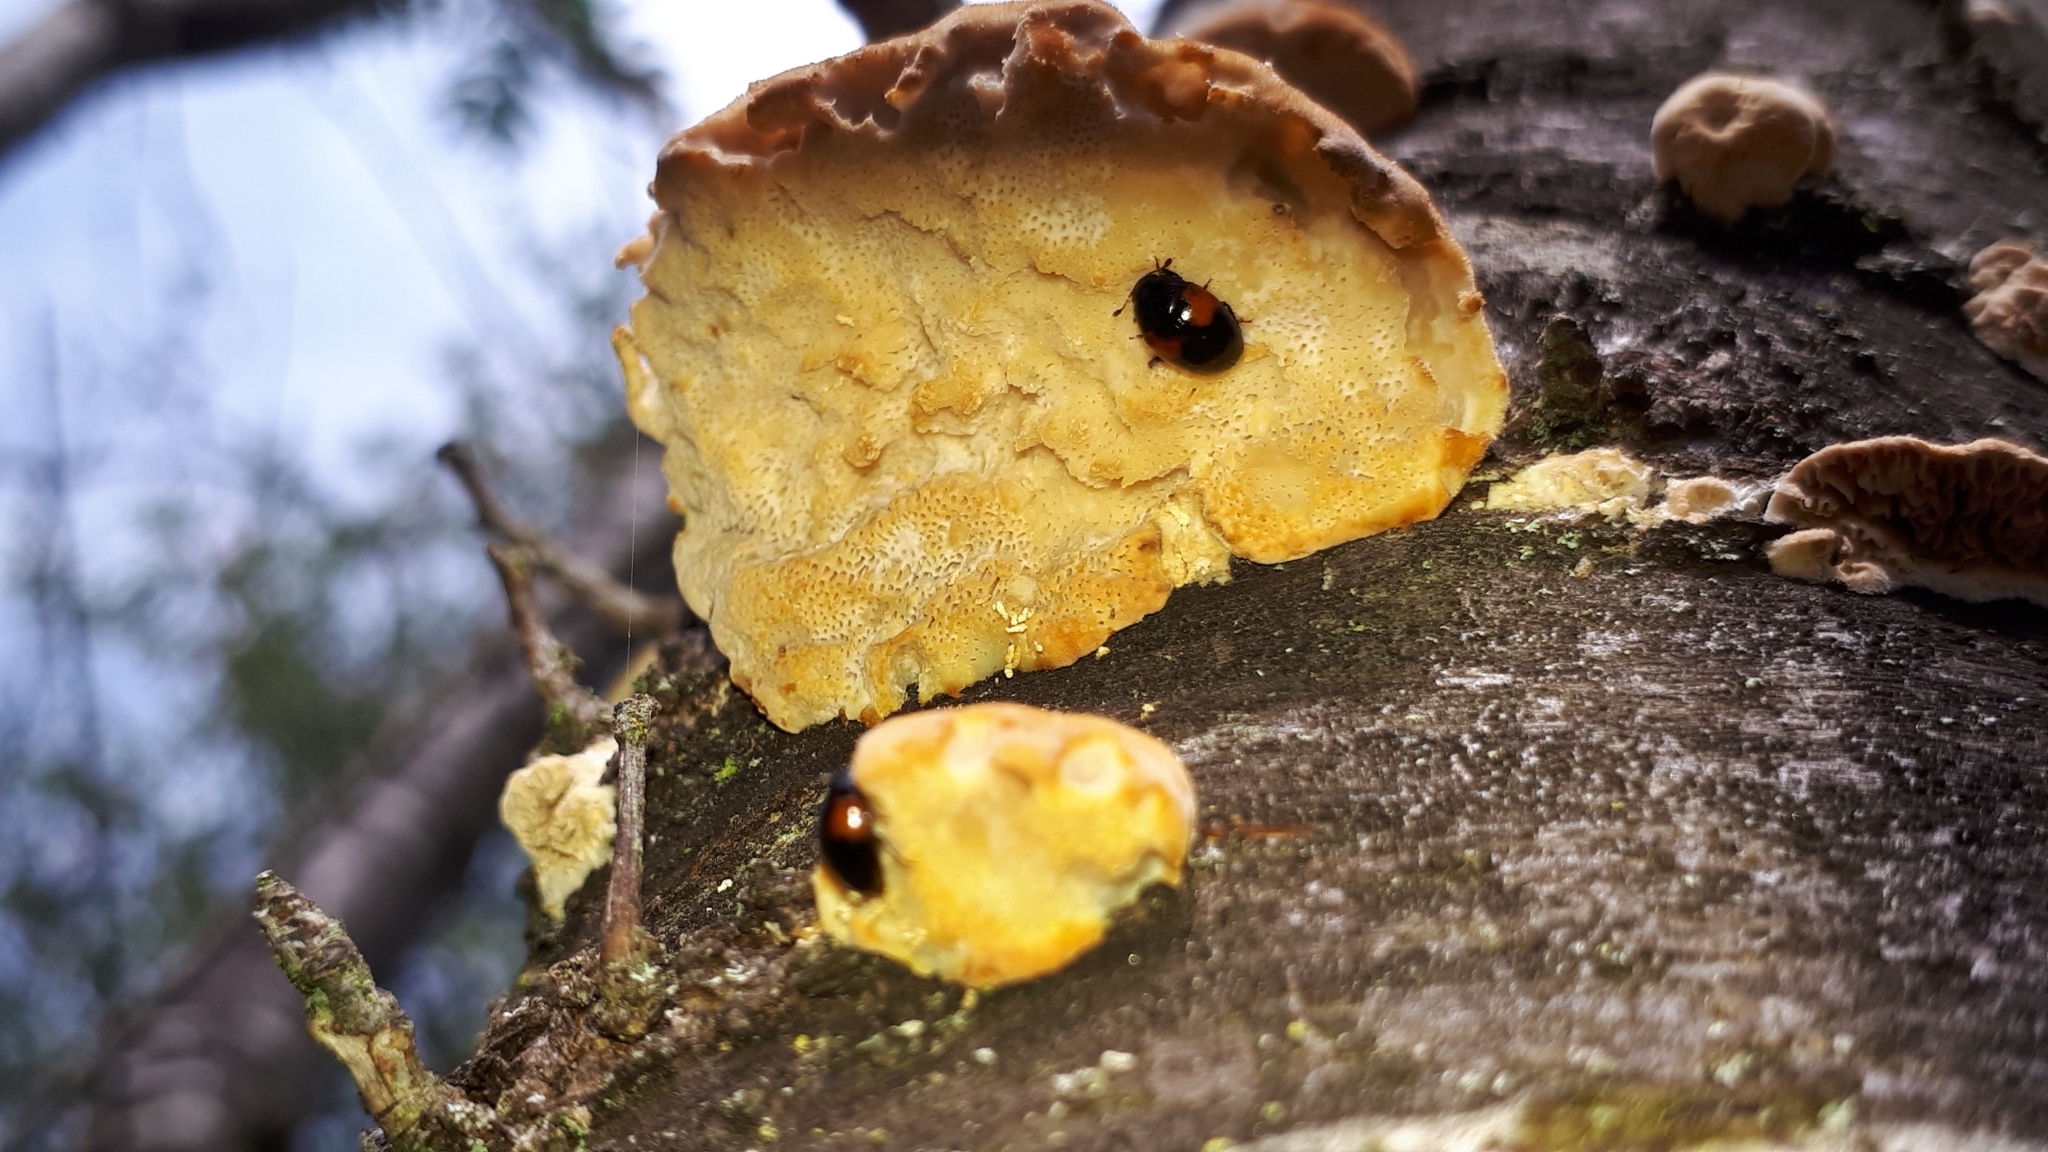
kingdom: Animalia
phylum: Arthropoda
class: Insecta
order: Coleoptera
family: Erotylidae
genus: Tritoma
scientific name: Tritoma bipustulata
